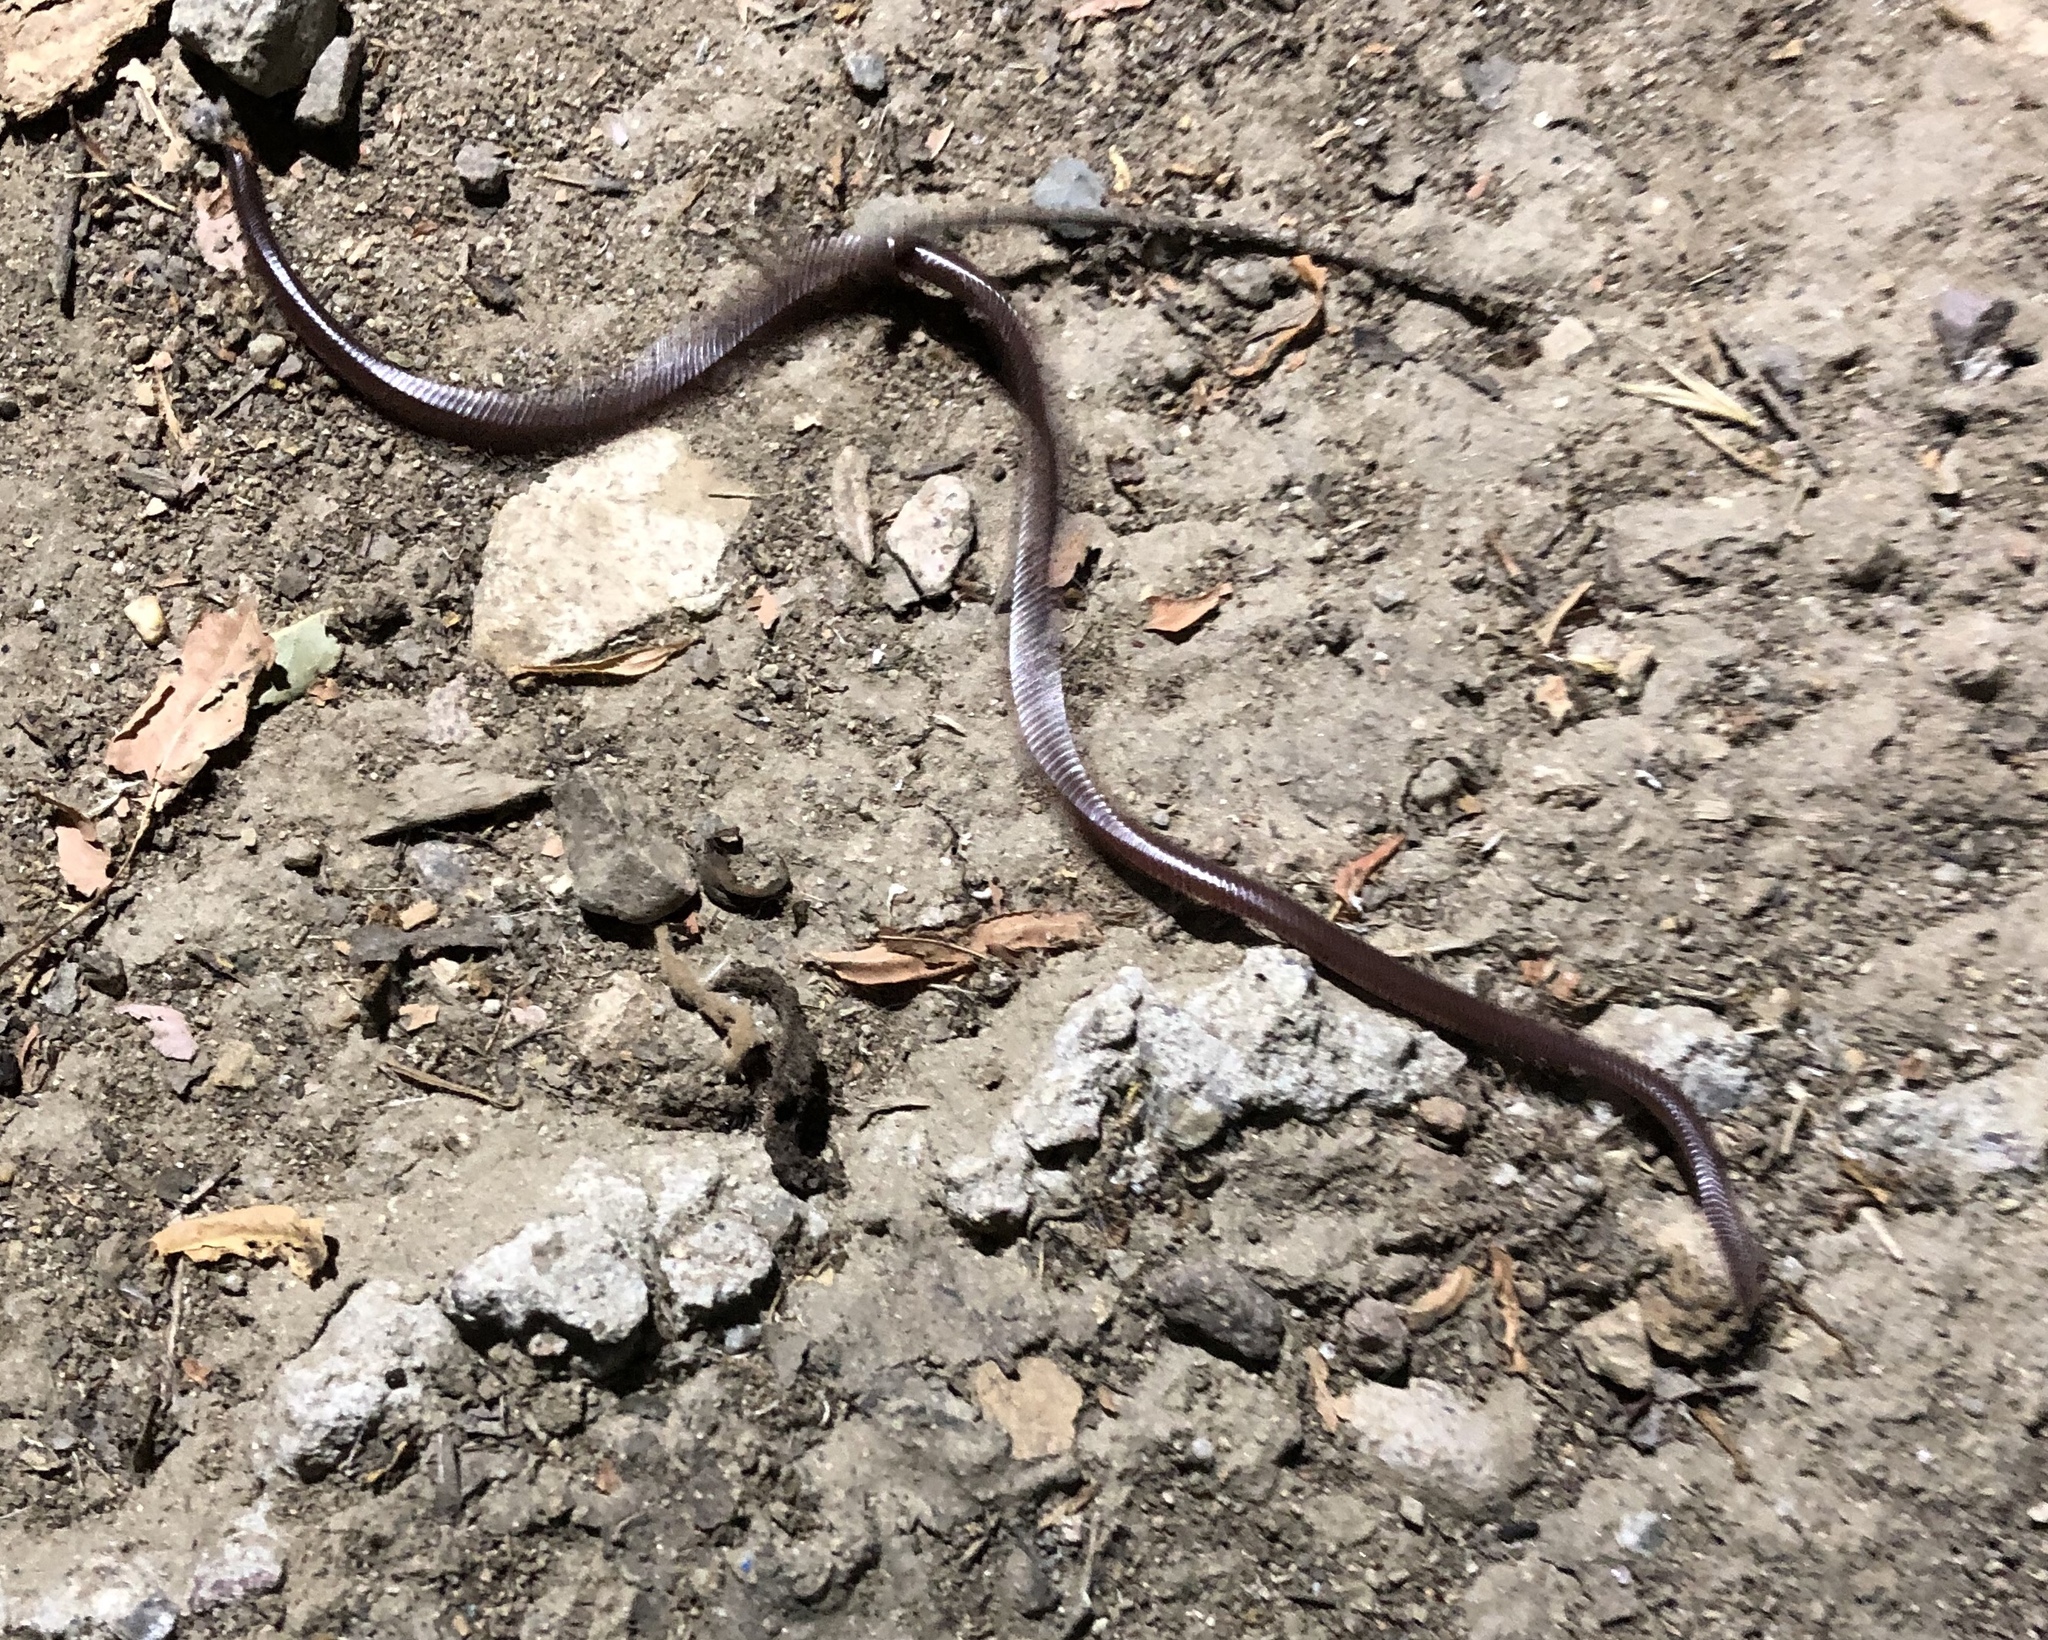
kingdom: Animalia
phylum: Chordata
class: Squamata
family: Leptotyphlopidae
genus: Rena
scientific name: Rena humilis
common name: Western threadsnake
